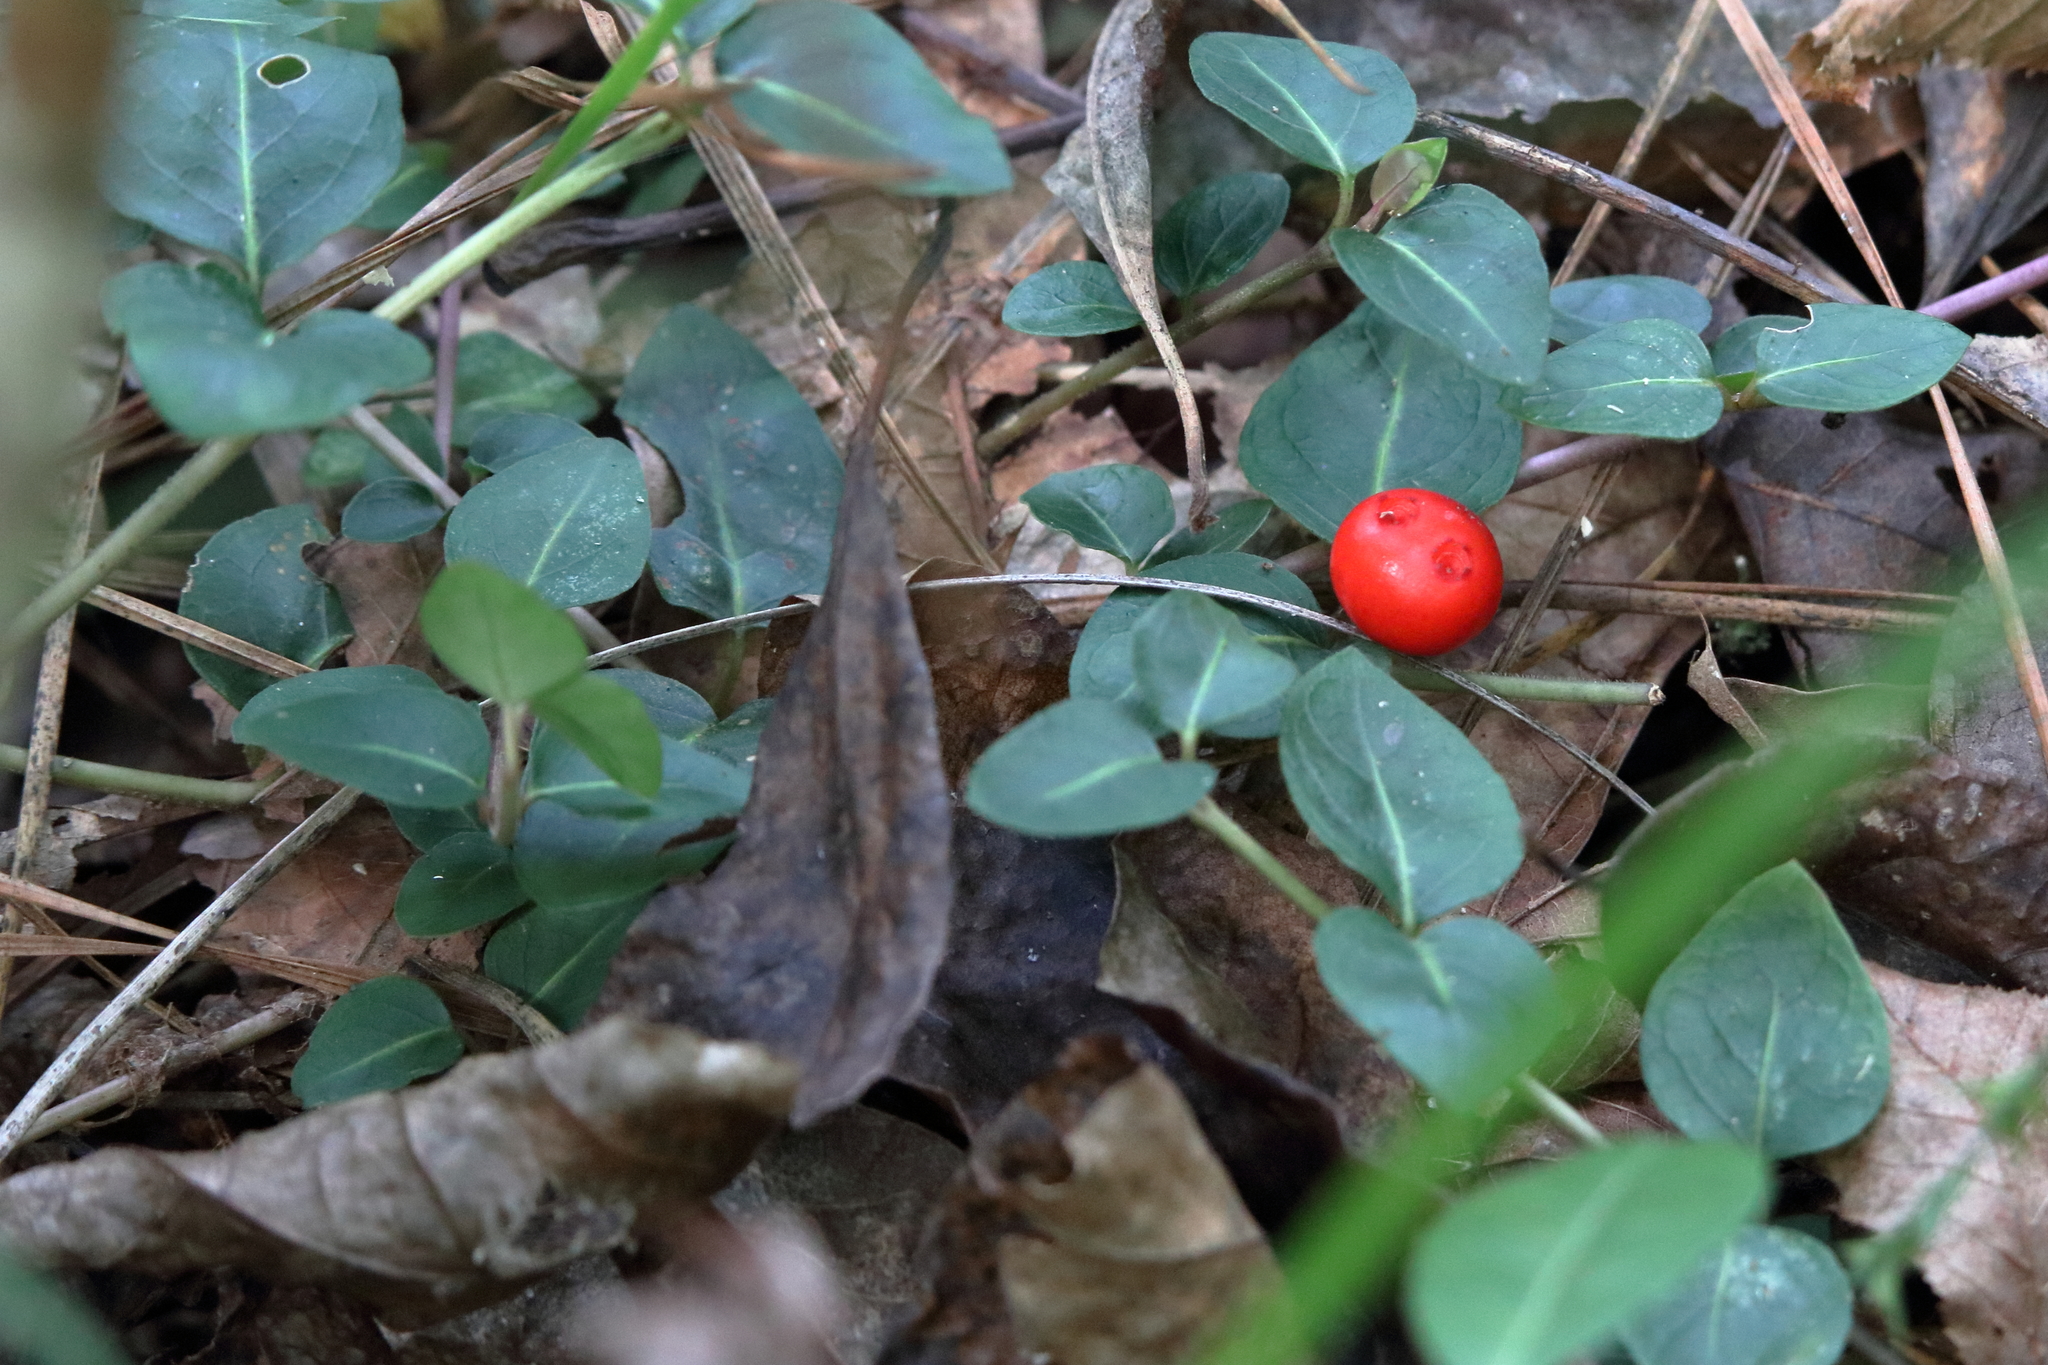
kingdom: Plantae
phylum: Tracheophyta
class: Magnoliopsida
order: Gentianales
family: Rubiaceae
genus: Mitchella
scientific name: Mitchella repens
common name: Partridge-berry
